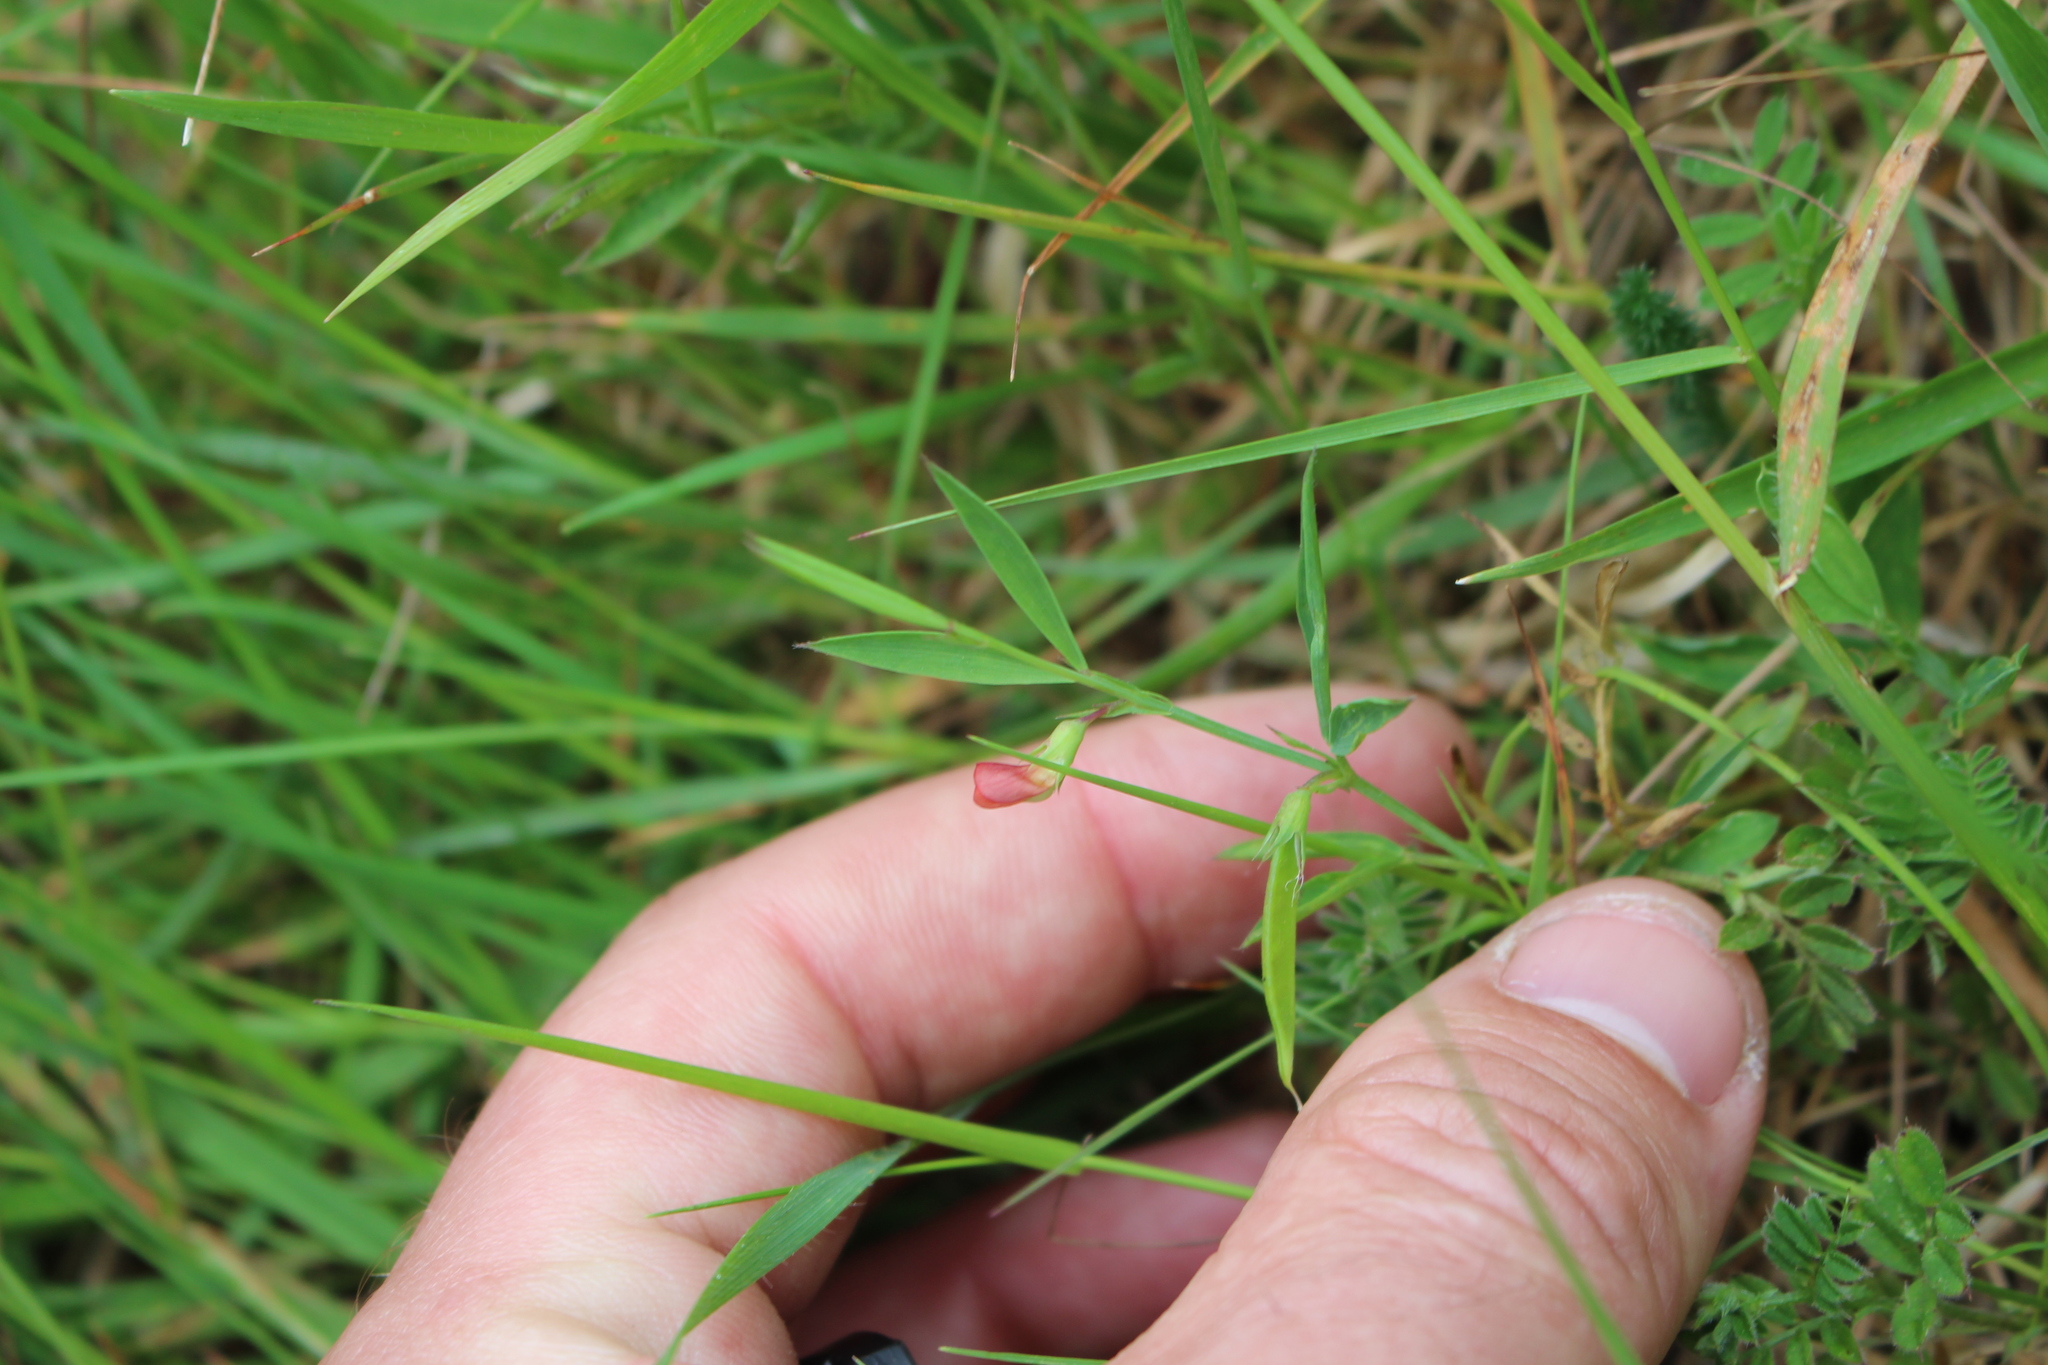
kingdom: Plantae
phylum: Tracheophyta
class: Magnoliopsida
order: Fabales
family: Fabaceae
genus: Lathyrus
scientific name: Lathyrus sphaericus
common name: Grass pea
